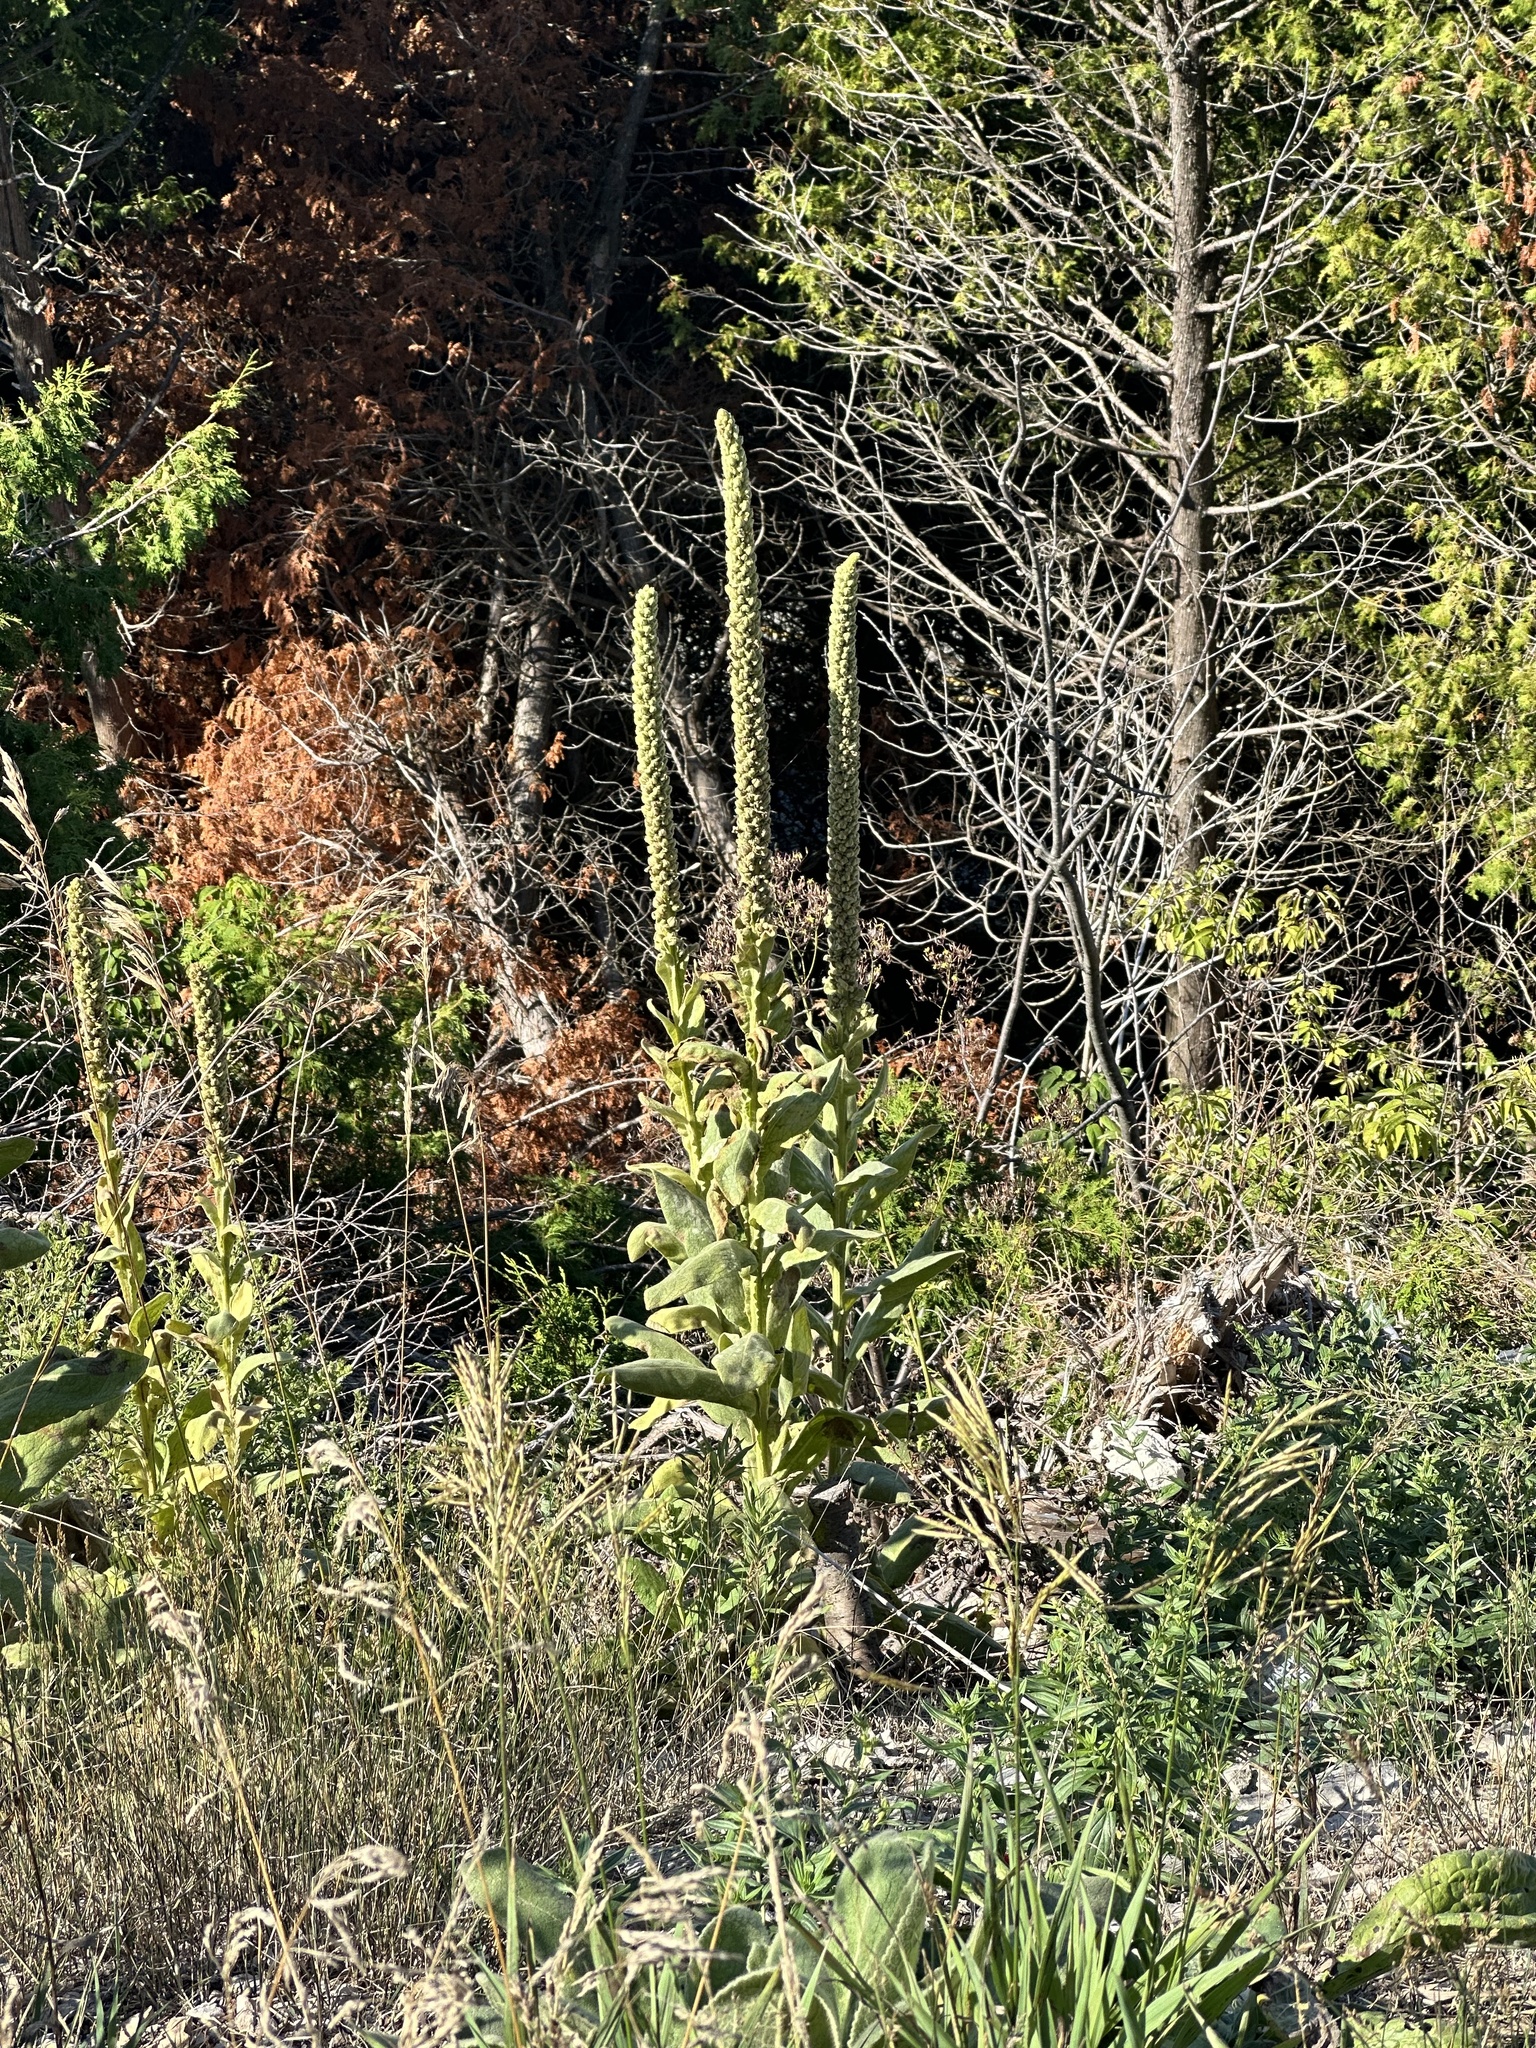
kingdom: Plantae
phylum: Tracheophyta
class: Magnoliopsida
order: Lamiales
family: Scrophulariaceae
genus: Verbascum
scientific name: Verbascum thapsus
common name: Common mullein
